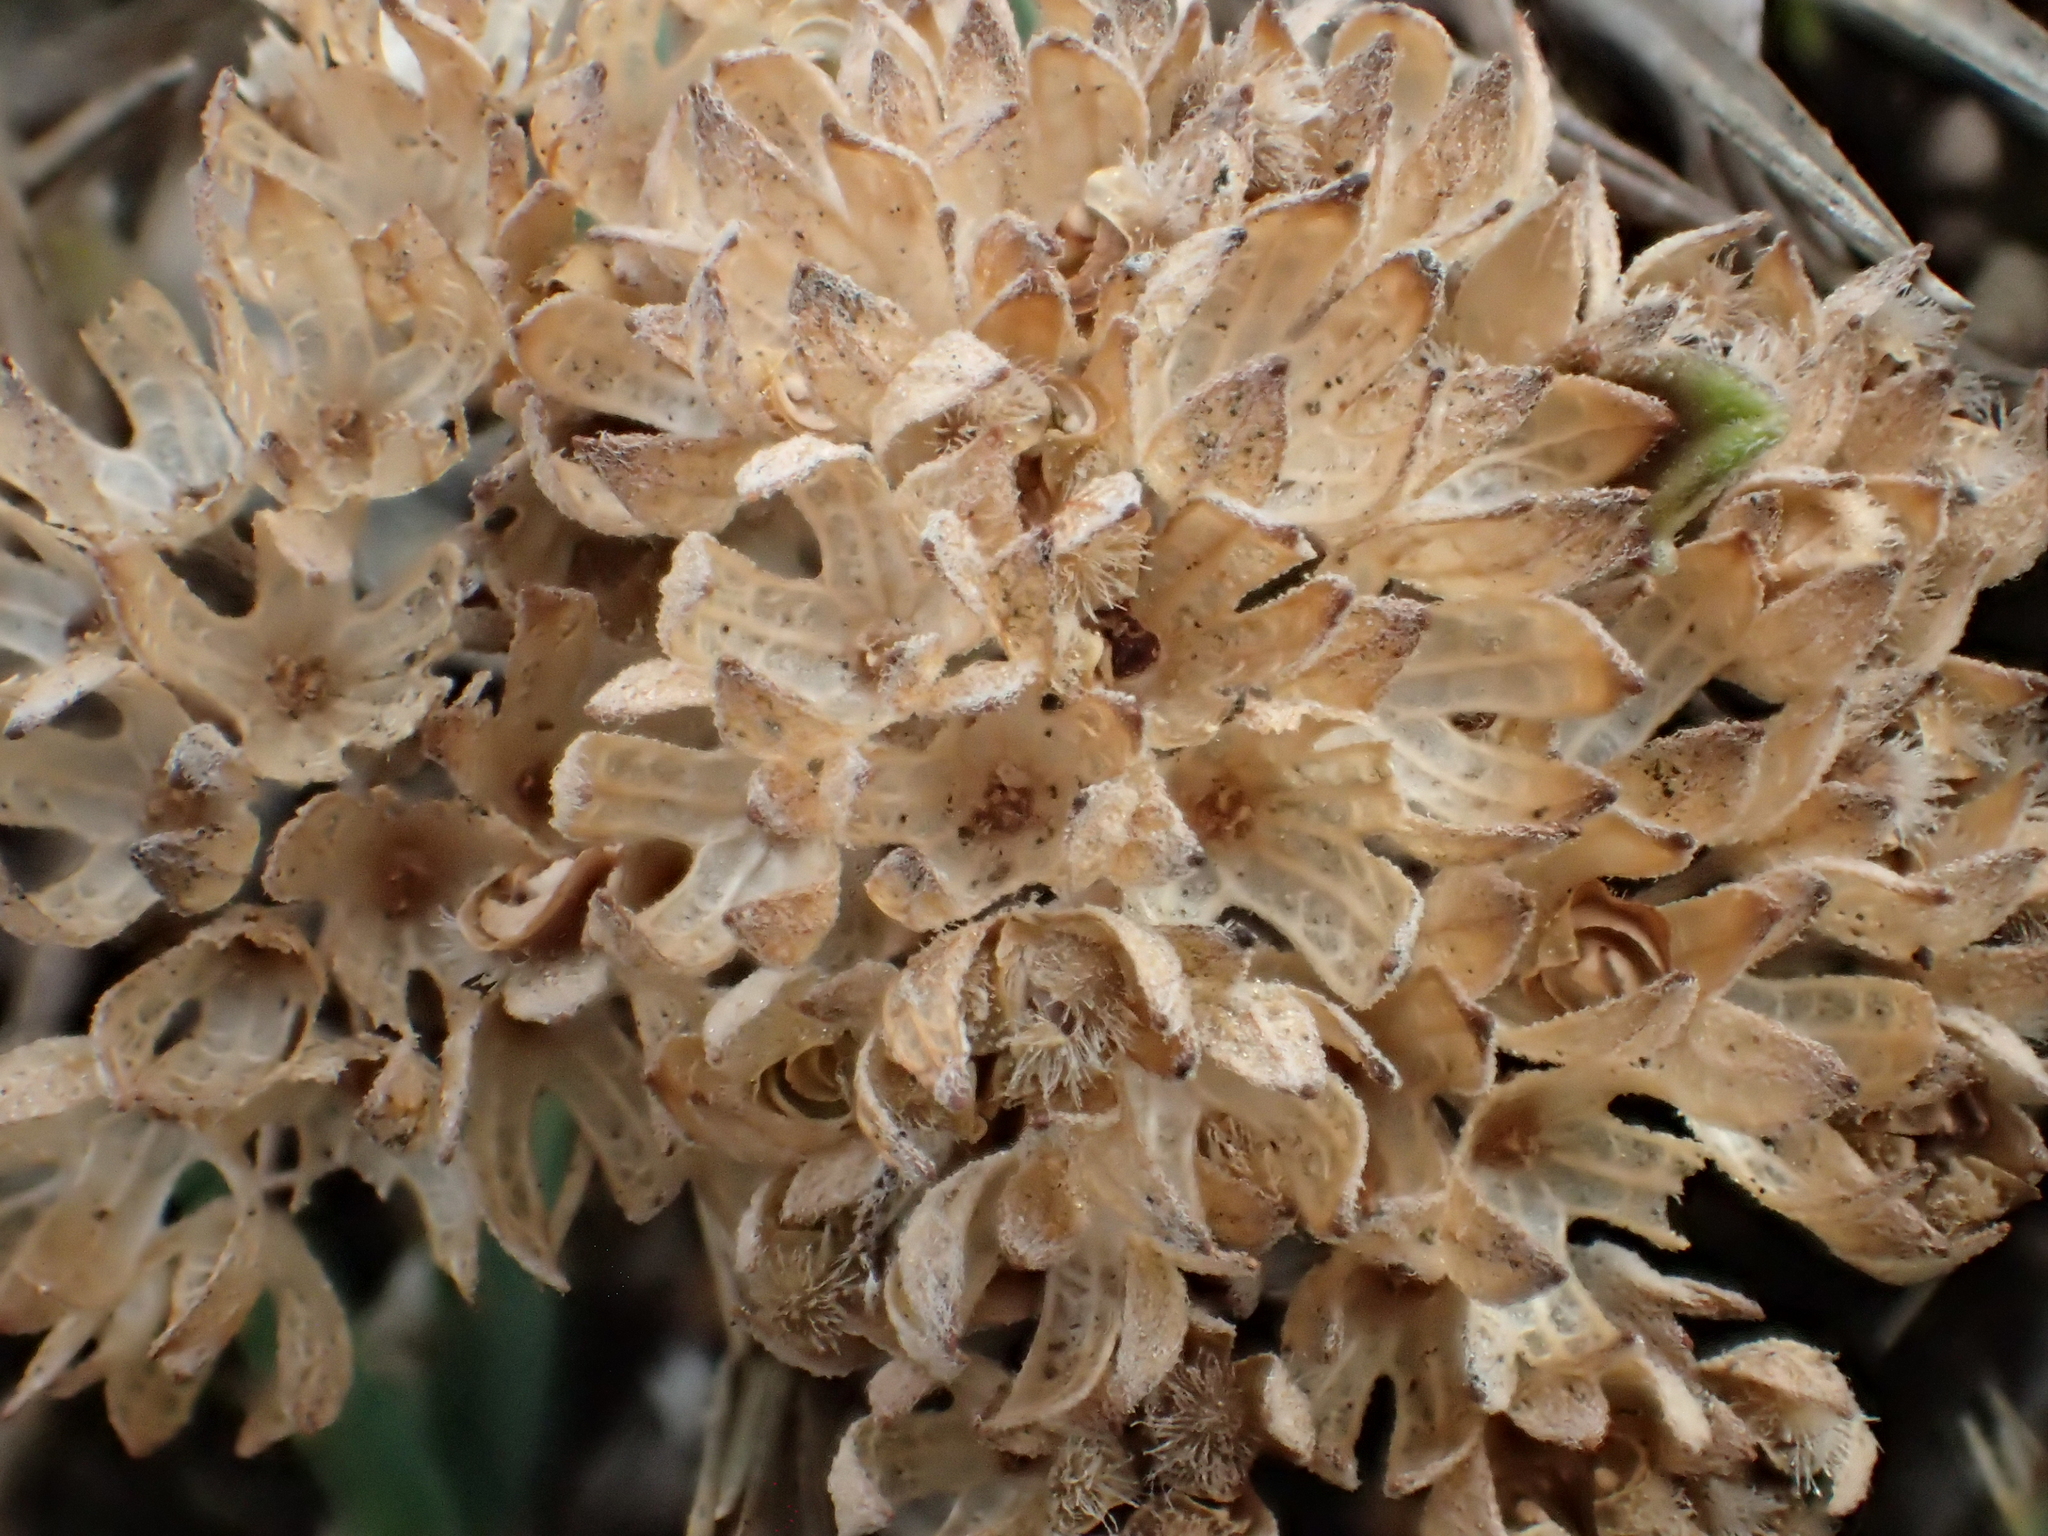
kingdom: Plantae
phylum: Tracheophyta
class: Magnoliopsida
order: Lamiales
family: Lamiaceae
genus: Caryopteris
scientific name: Caryopteris incana
